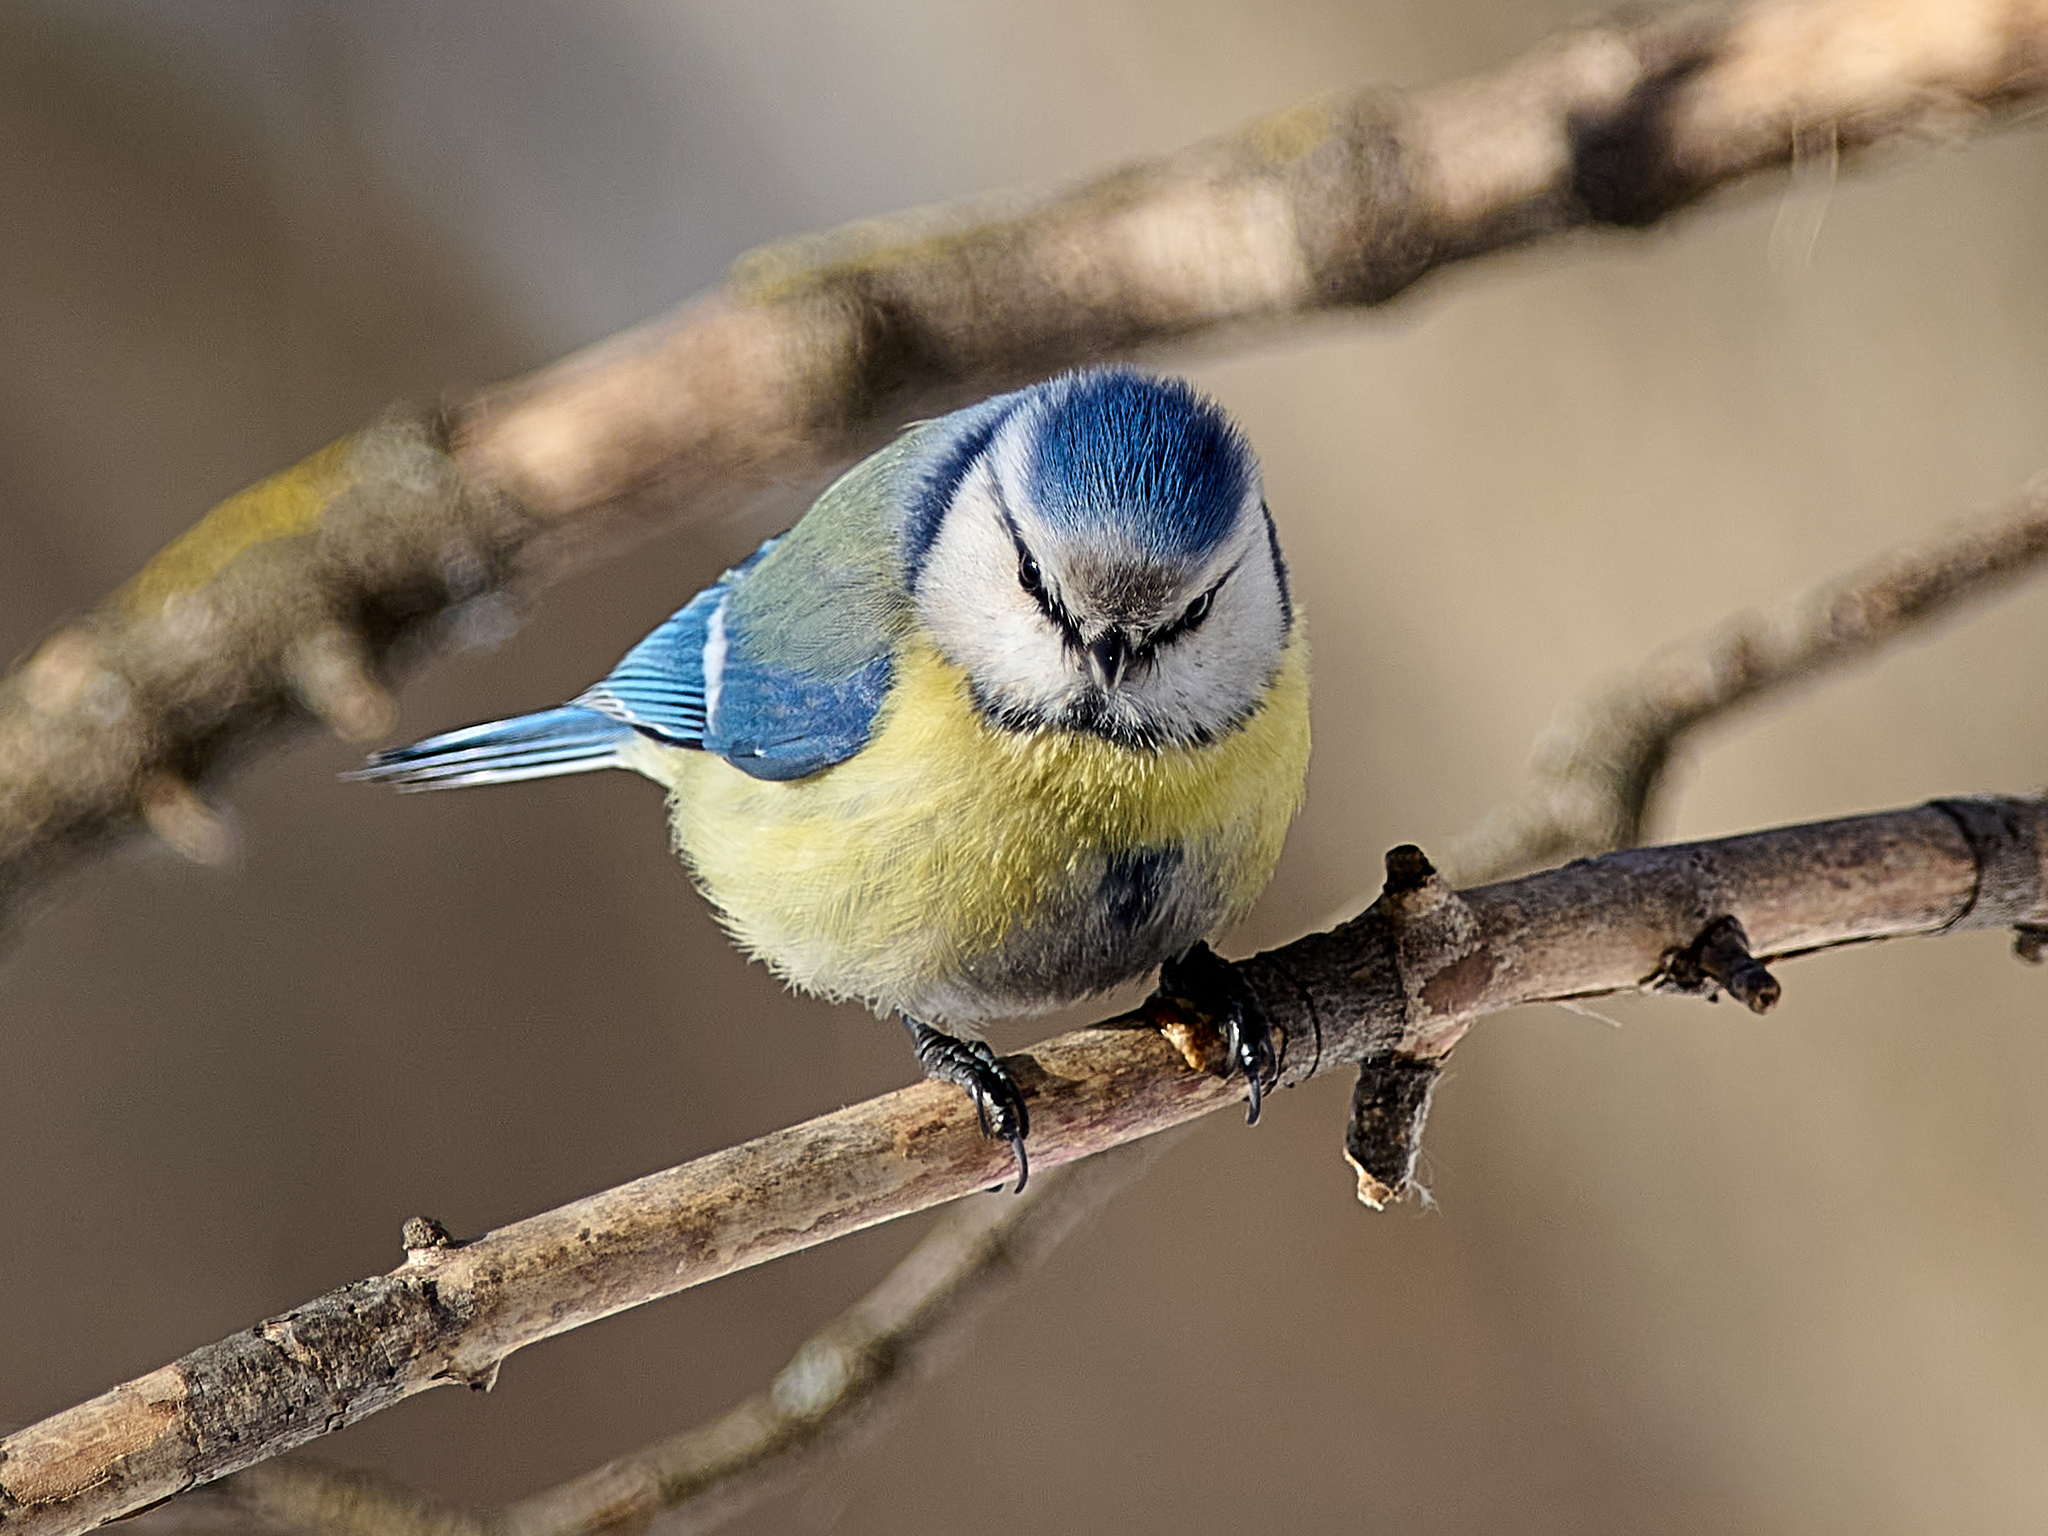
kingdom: Animalia
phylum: Chordata
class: Aves
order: Passeriformes
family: Paridae
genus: Cyanistes
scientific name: Cyanistes caeruleus
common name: Eurasian blue tit
